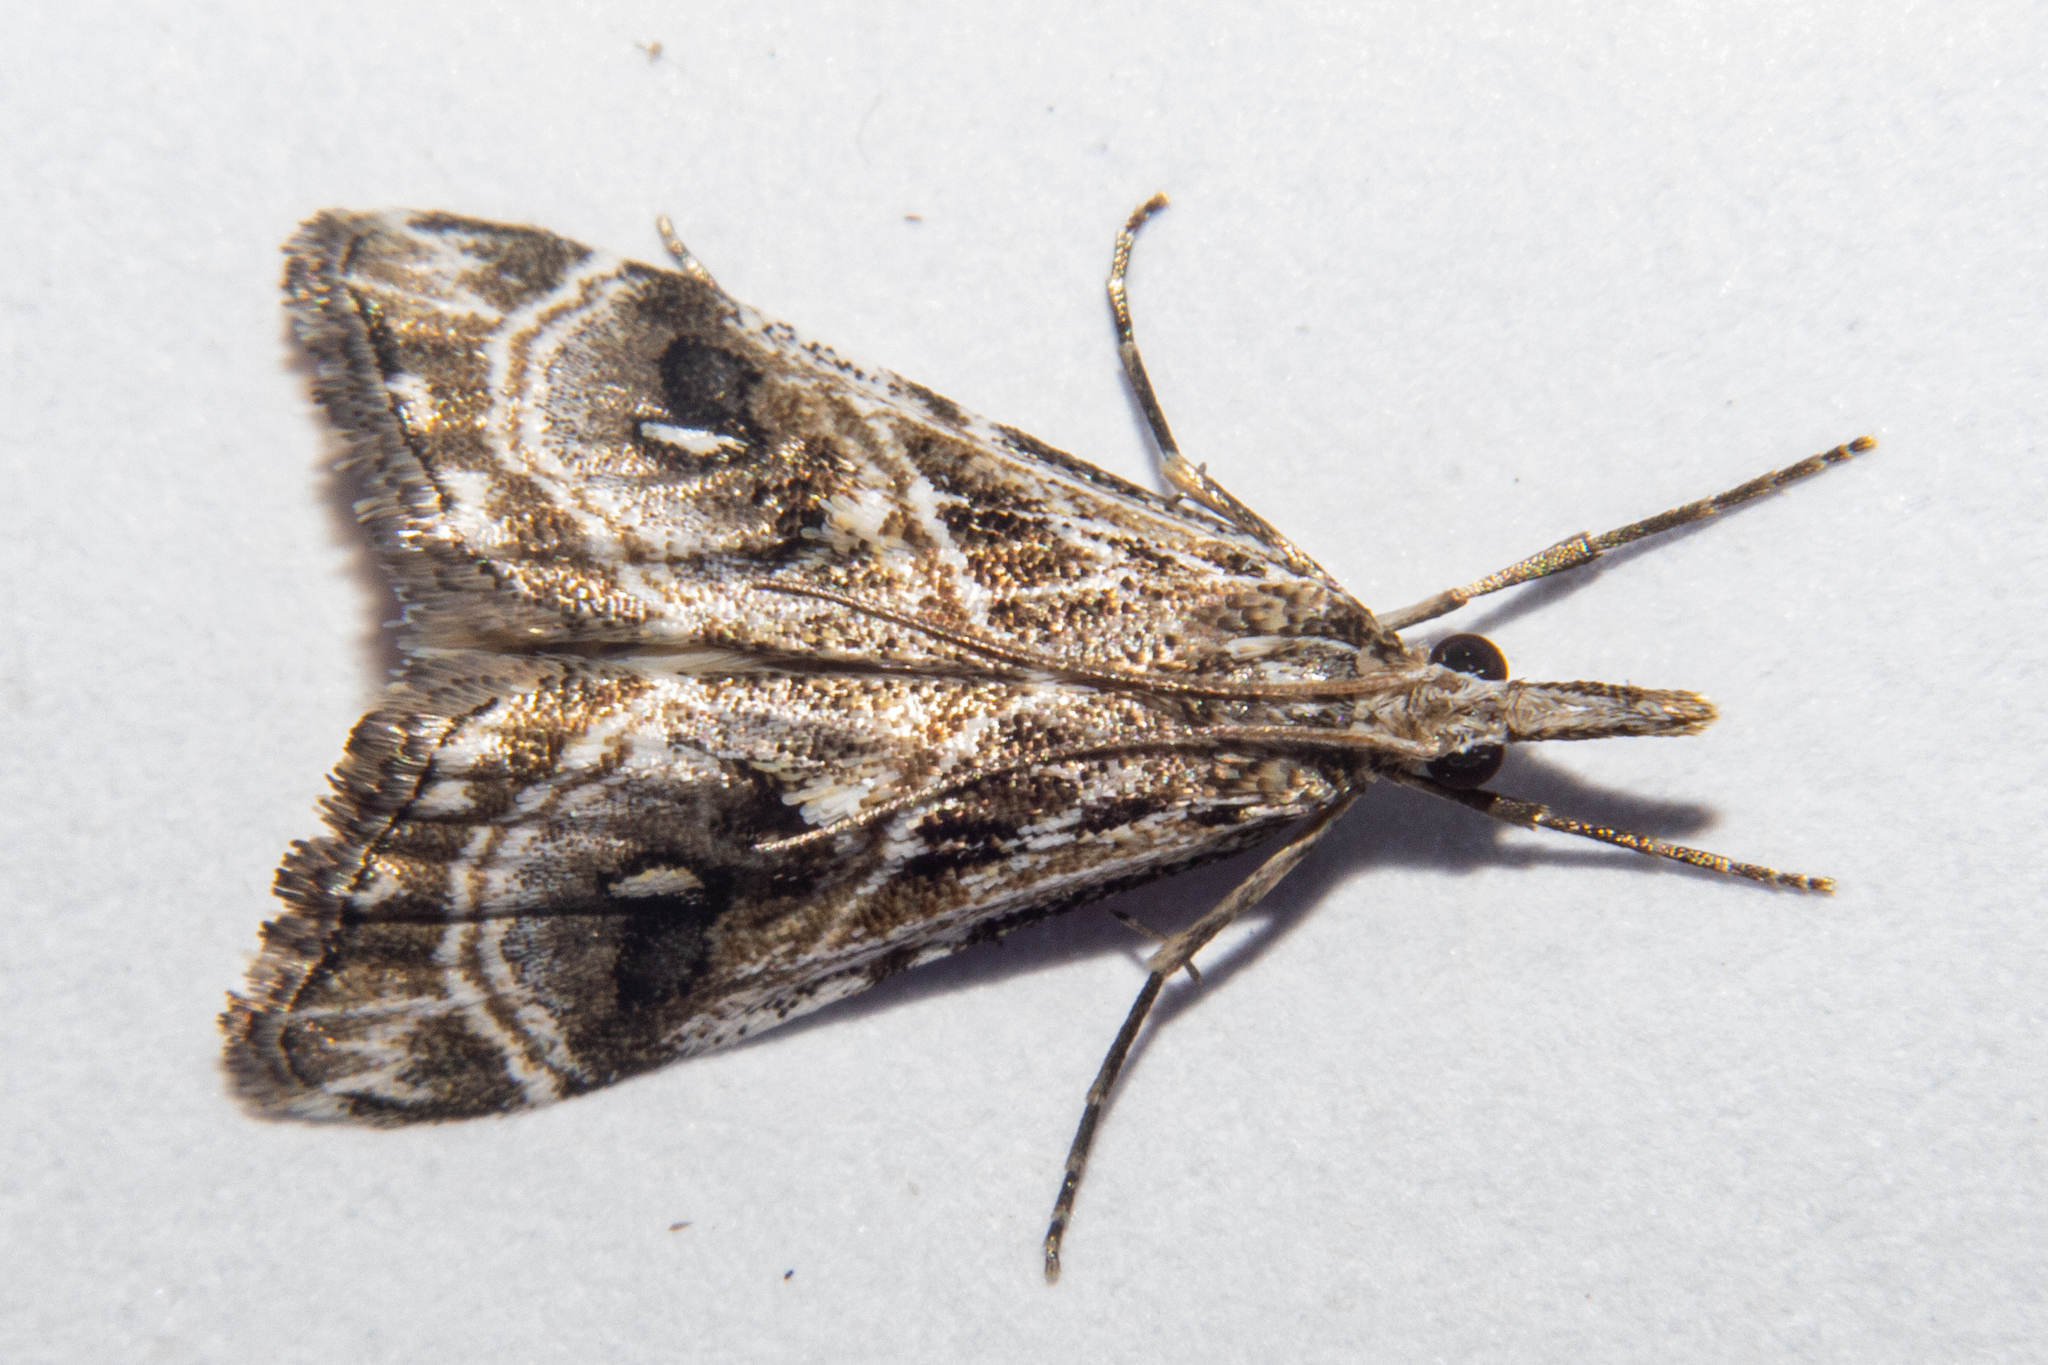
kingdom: Animalia
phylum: Arthropoda
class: Insecta
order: Lepidoptera
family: Crambidae
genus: Gadira
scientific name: Gadira acerella
